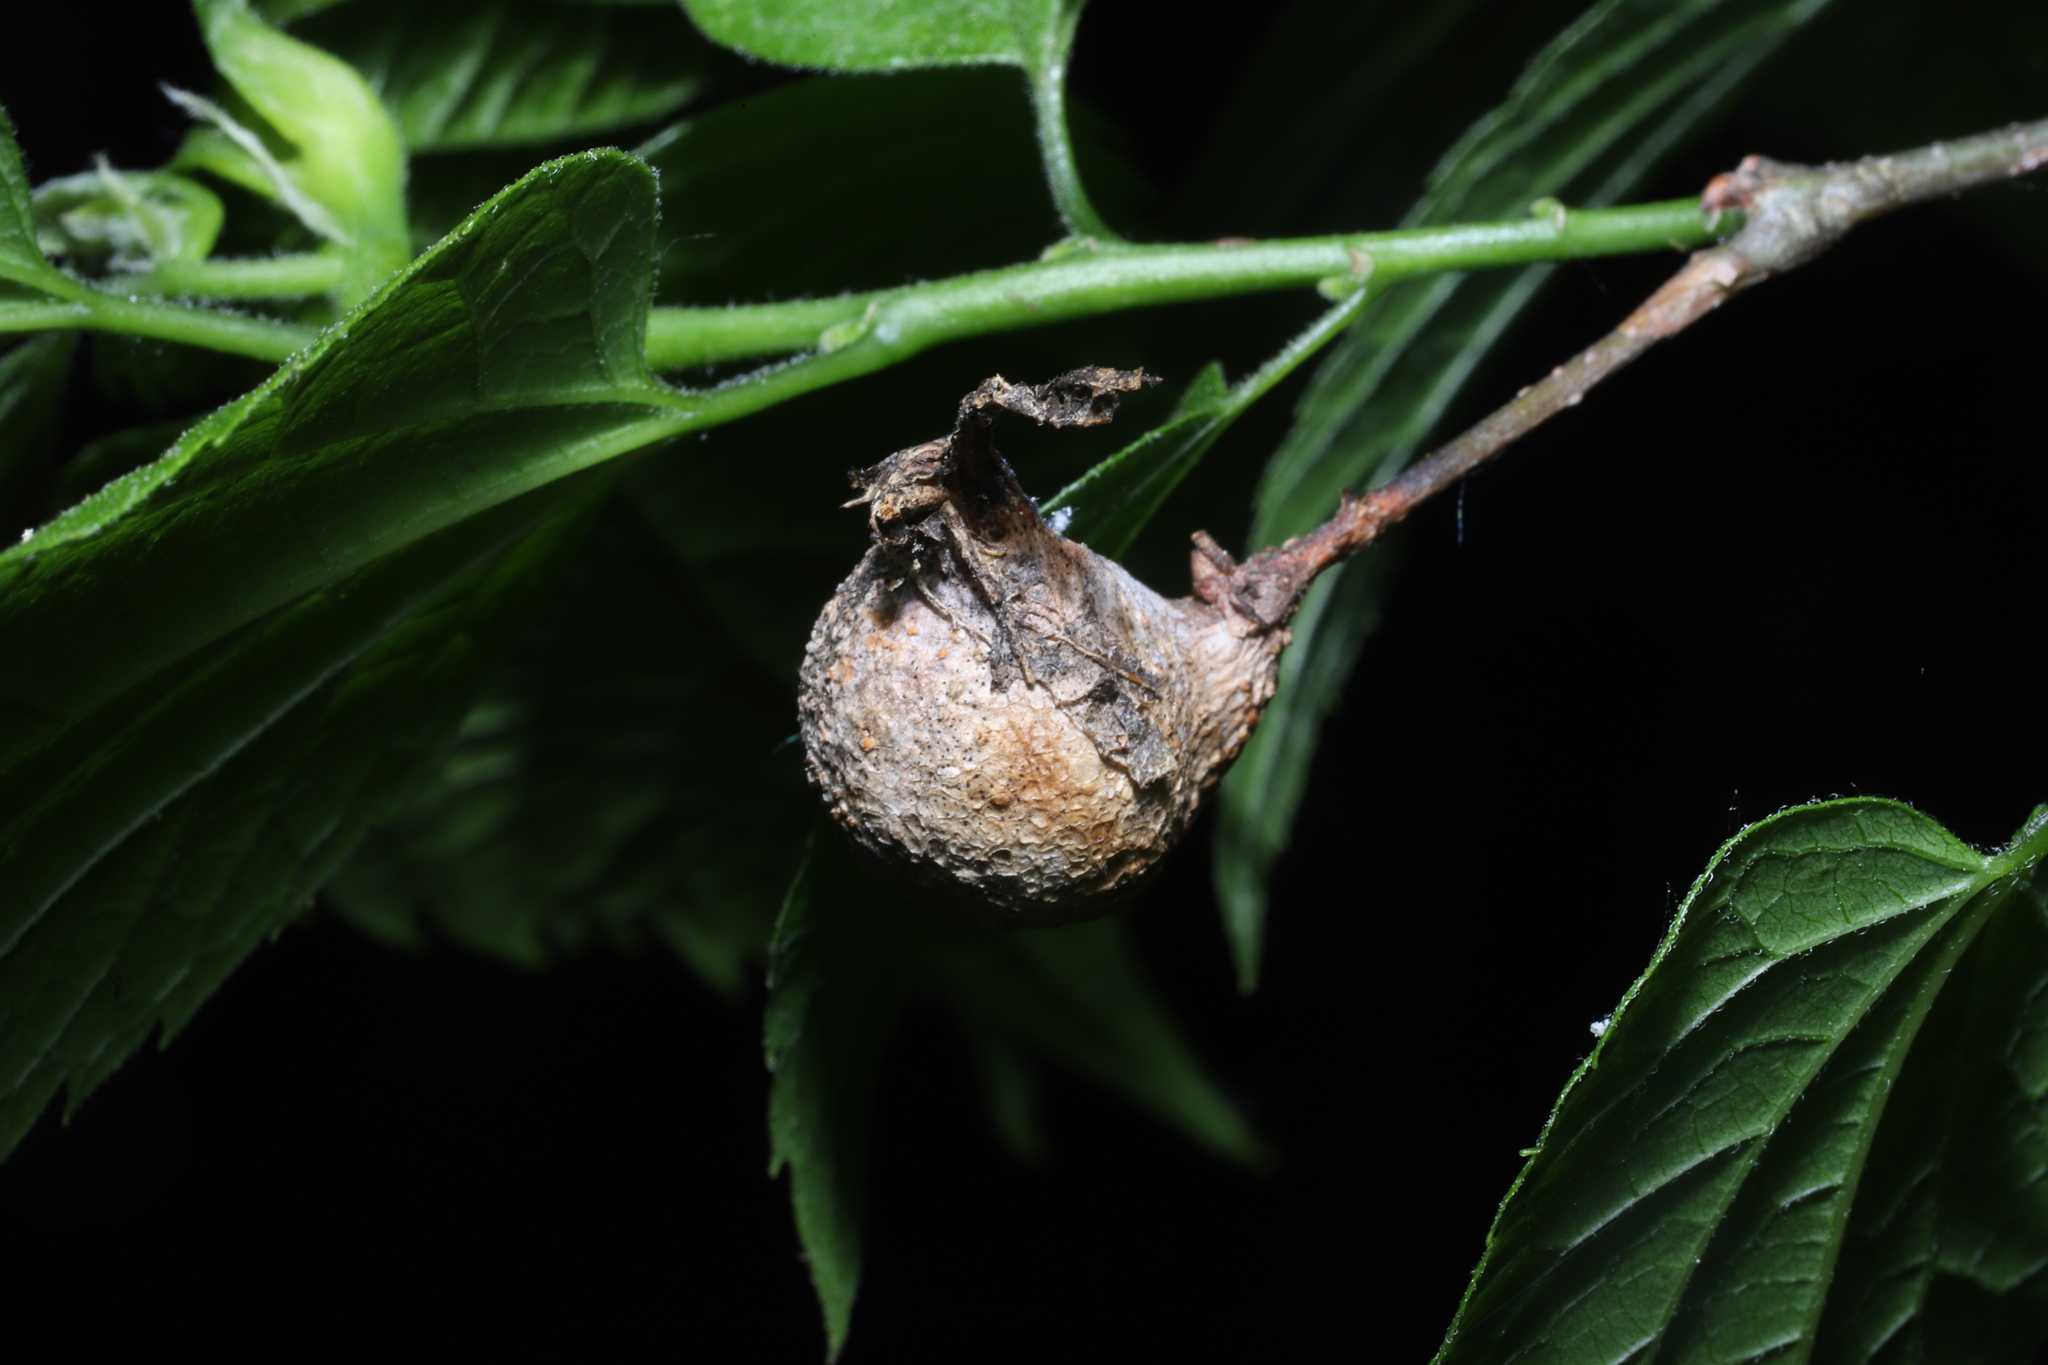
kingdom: Animalia
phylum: Arthropoda
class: Insecta
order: Hemiptera
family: Aphalaridae
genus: Pachypsylla
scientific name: Pachypsylla venusta
